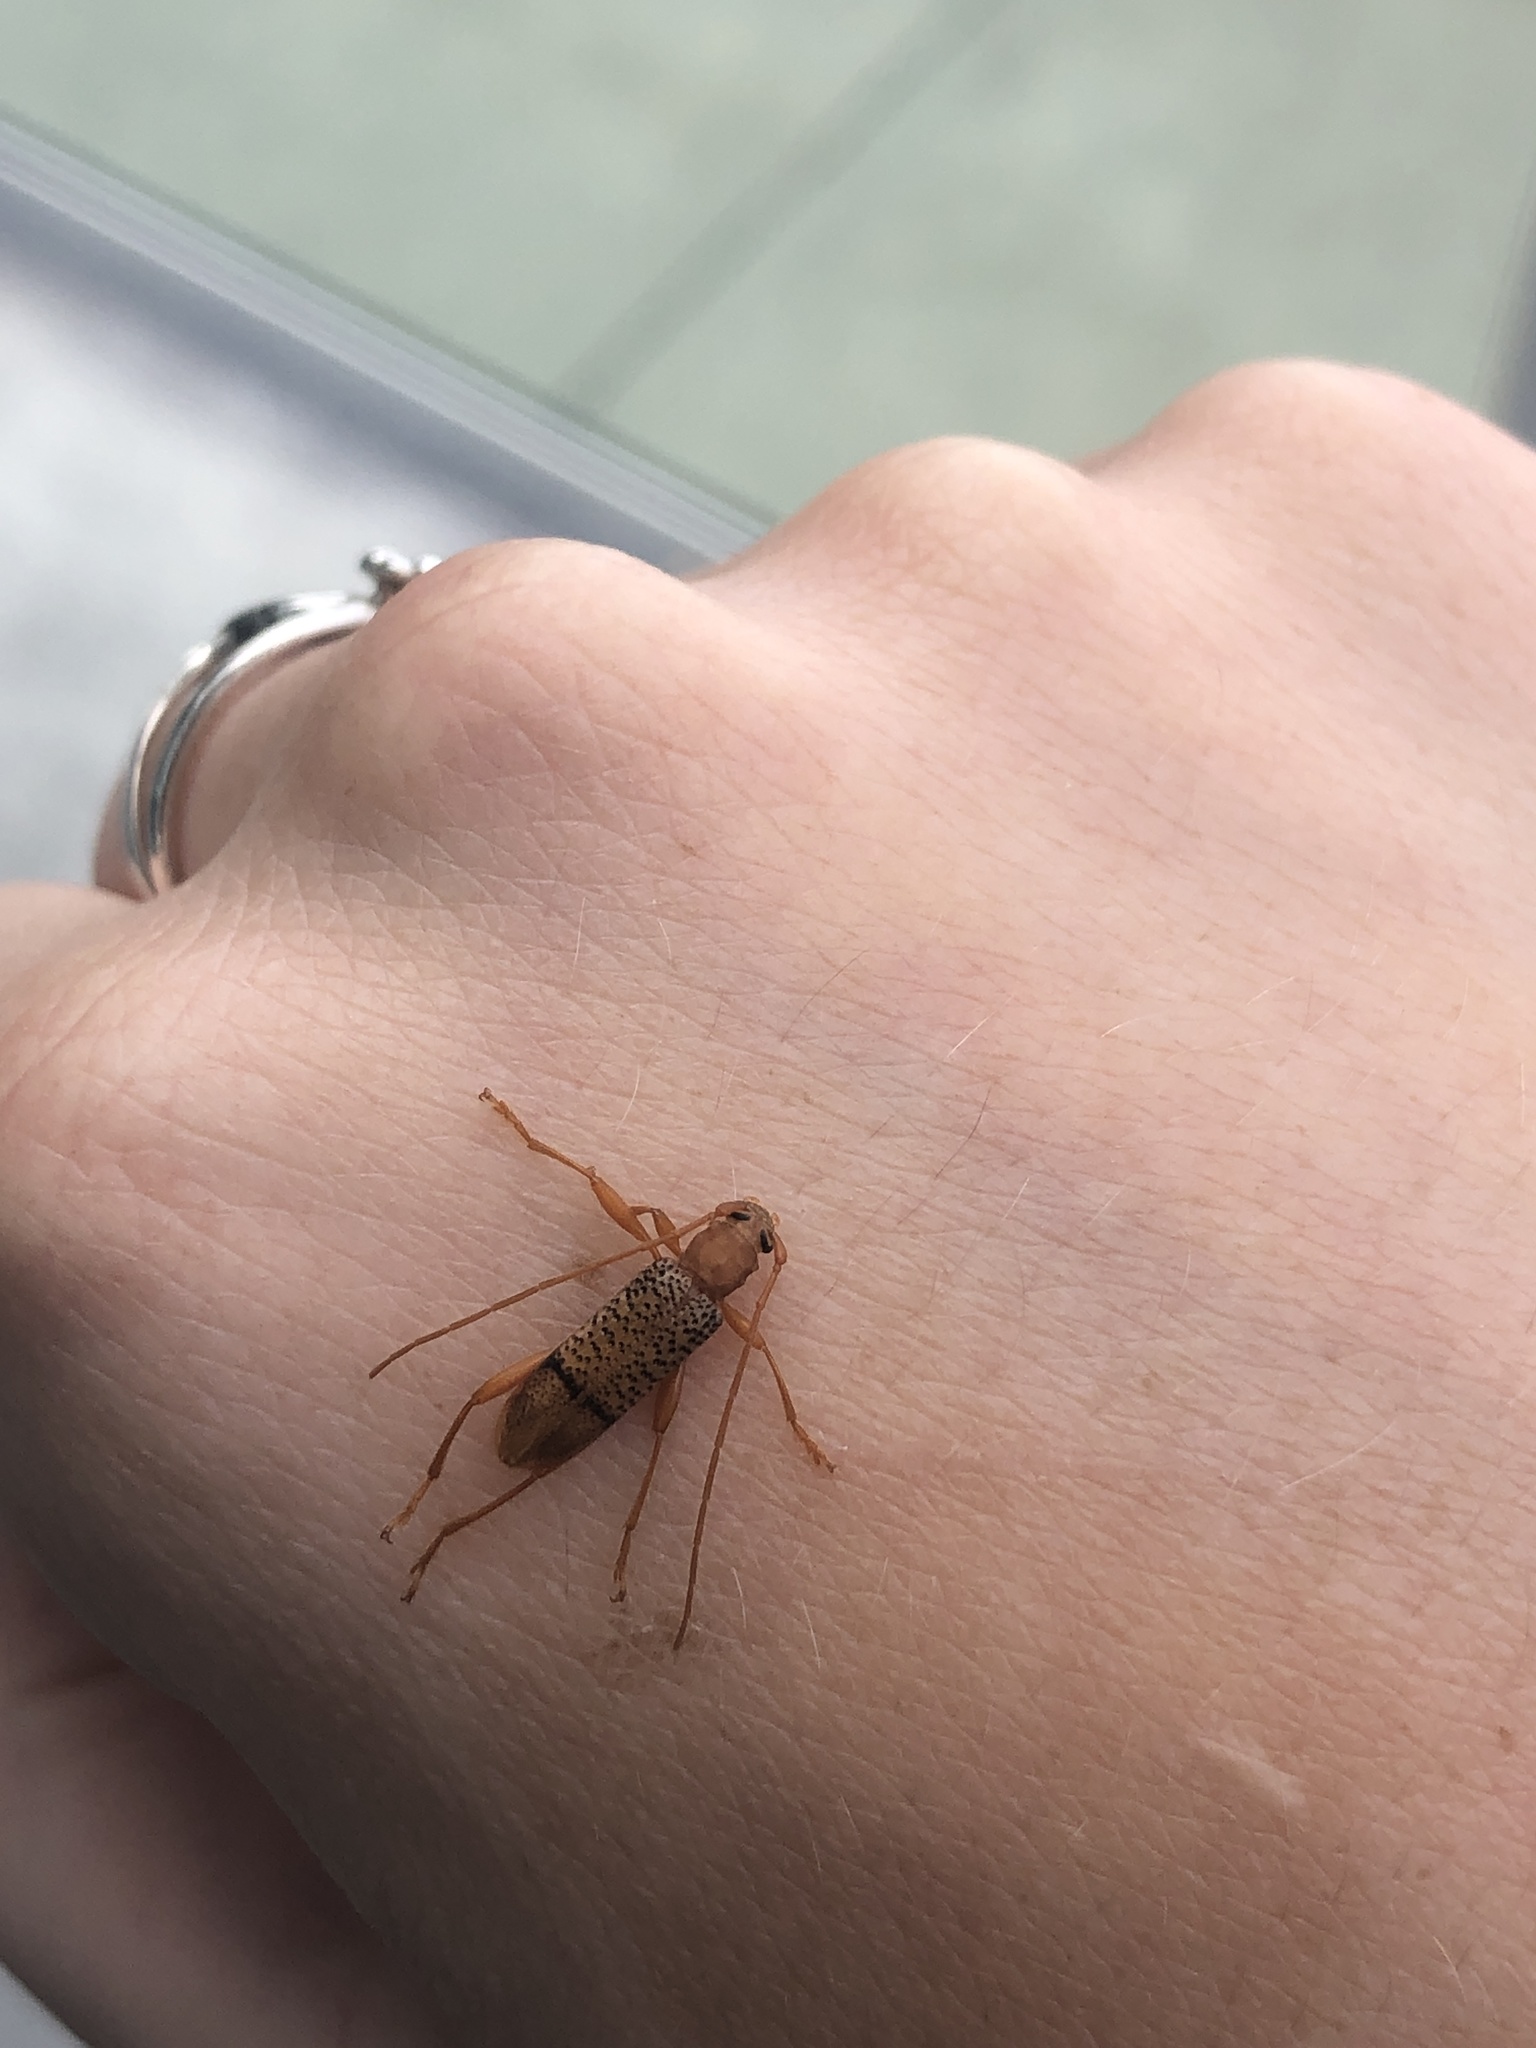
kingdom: Animalia
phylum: Arthropoda
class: Insecta
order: Coleoptera
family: Cerambycidae
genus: Xuthodes
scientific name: Xuthodes punctipennis
